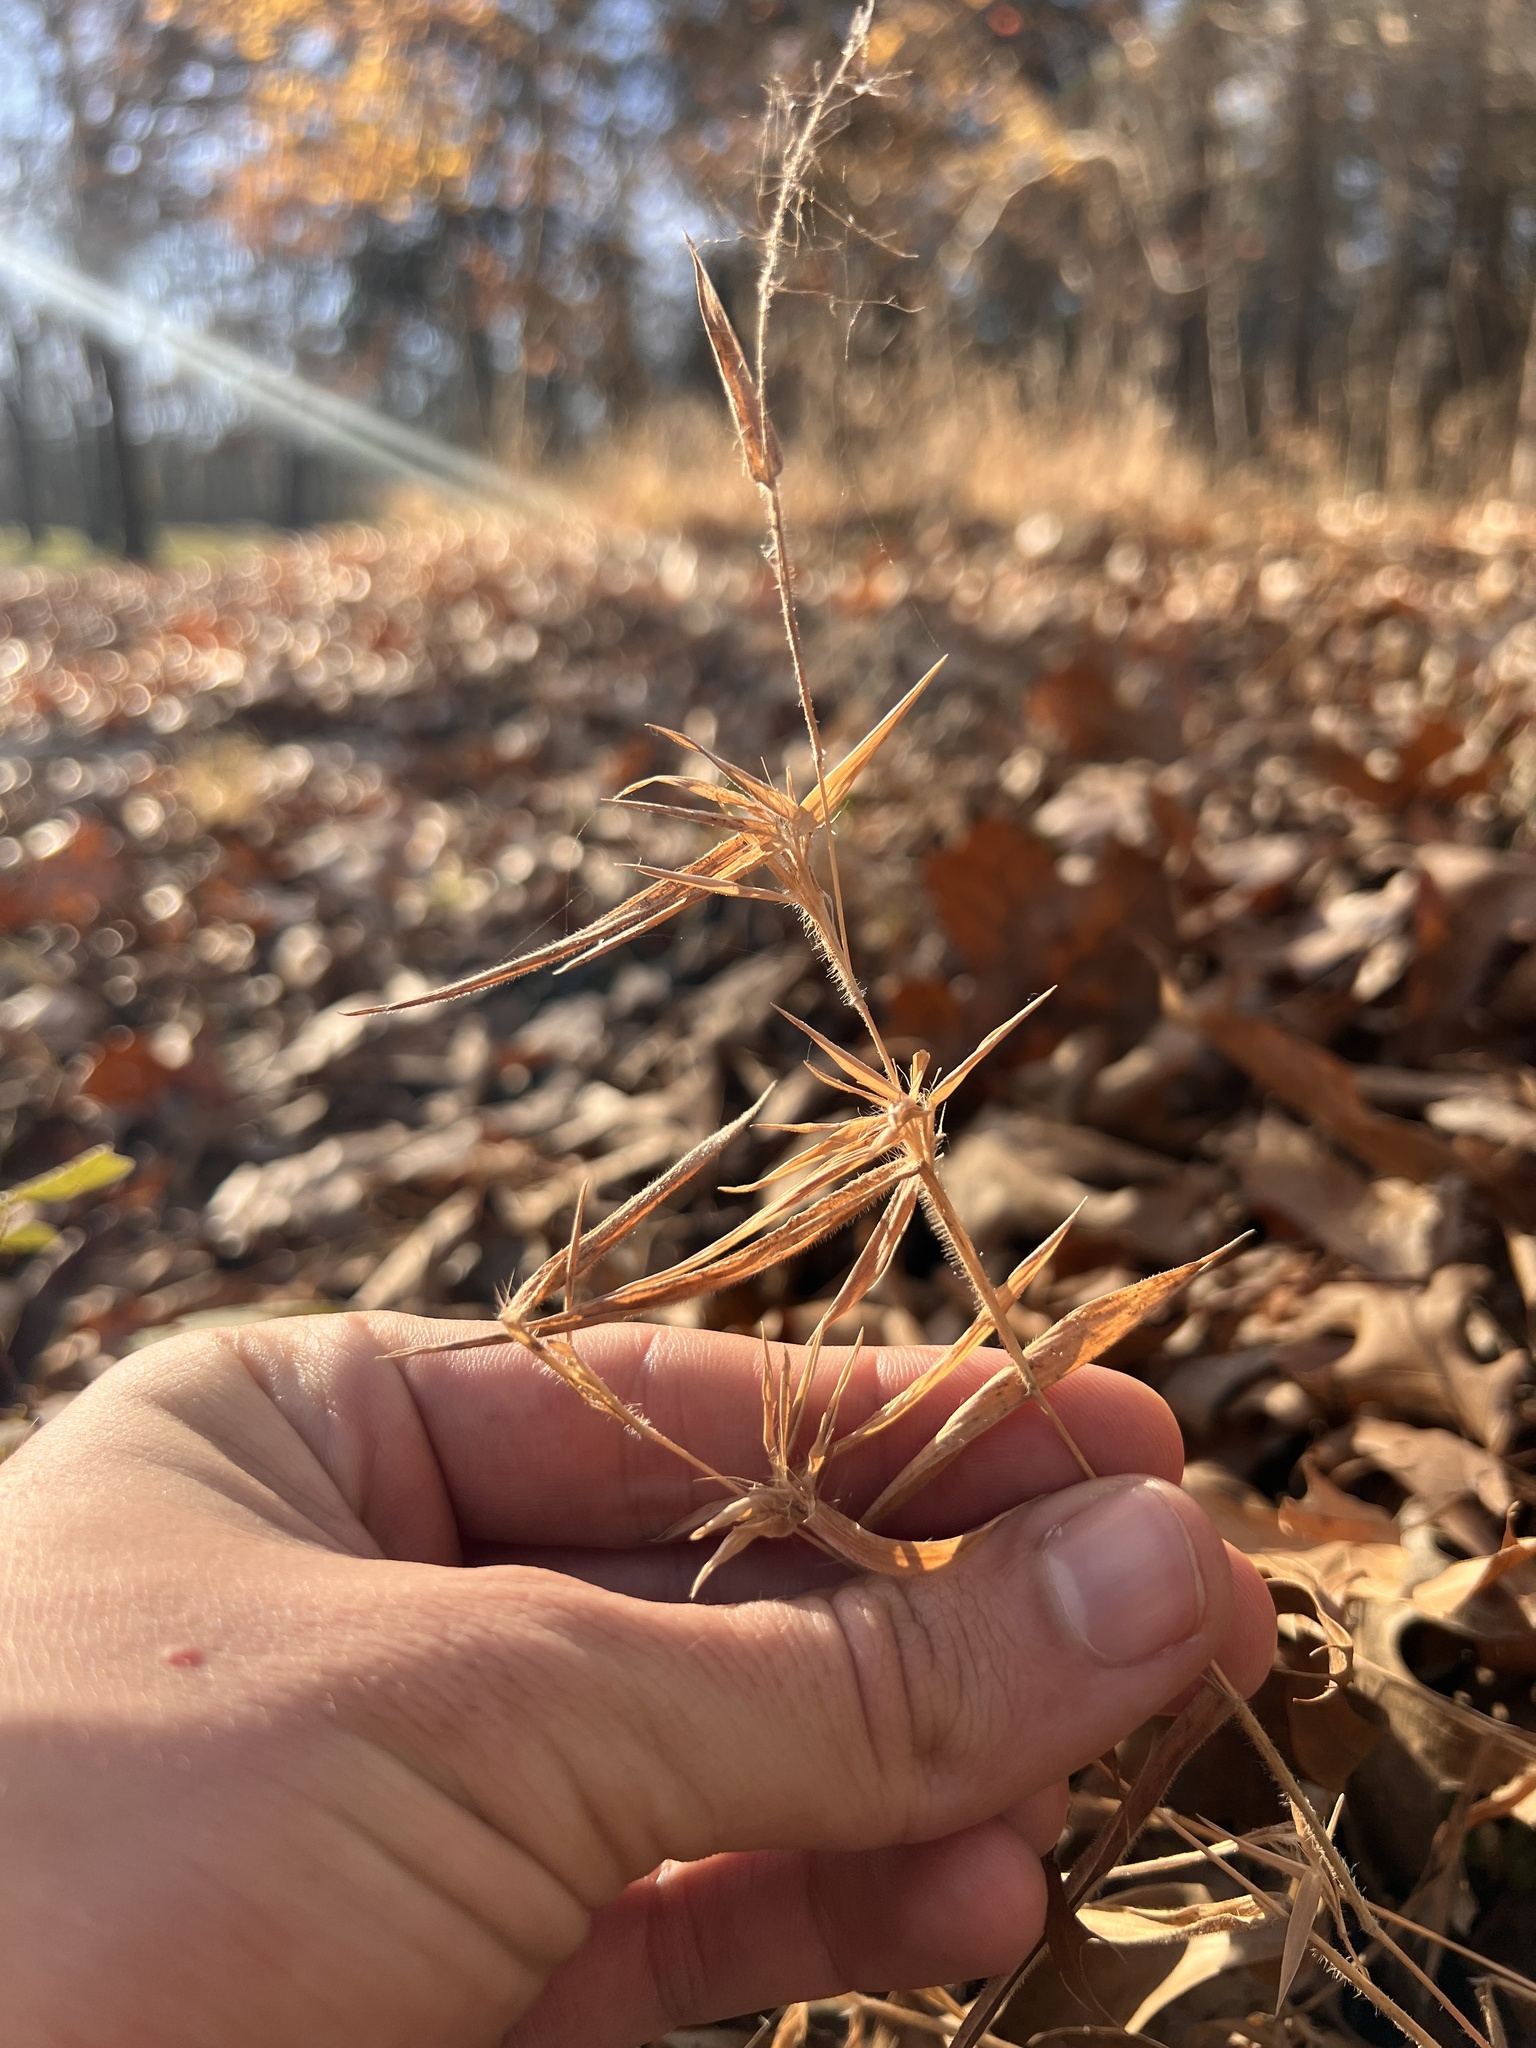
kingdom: Plantae
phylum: Tracheophyta
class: Liliopsida
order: Poales
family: Poaceae
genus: Dichanthelium
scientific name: Dichanthelium lanuginosum
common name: Woolly panicgrass
